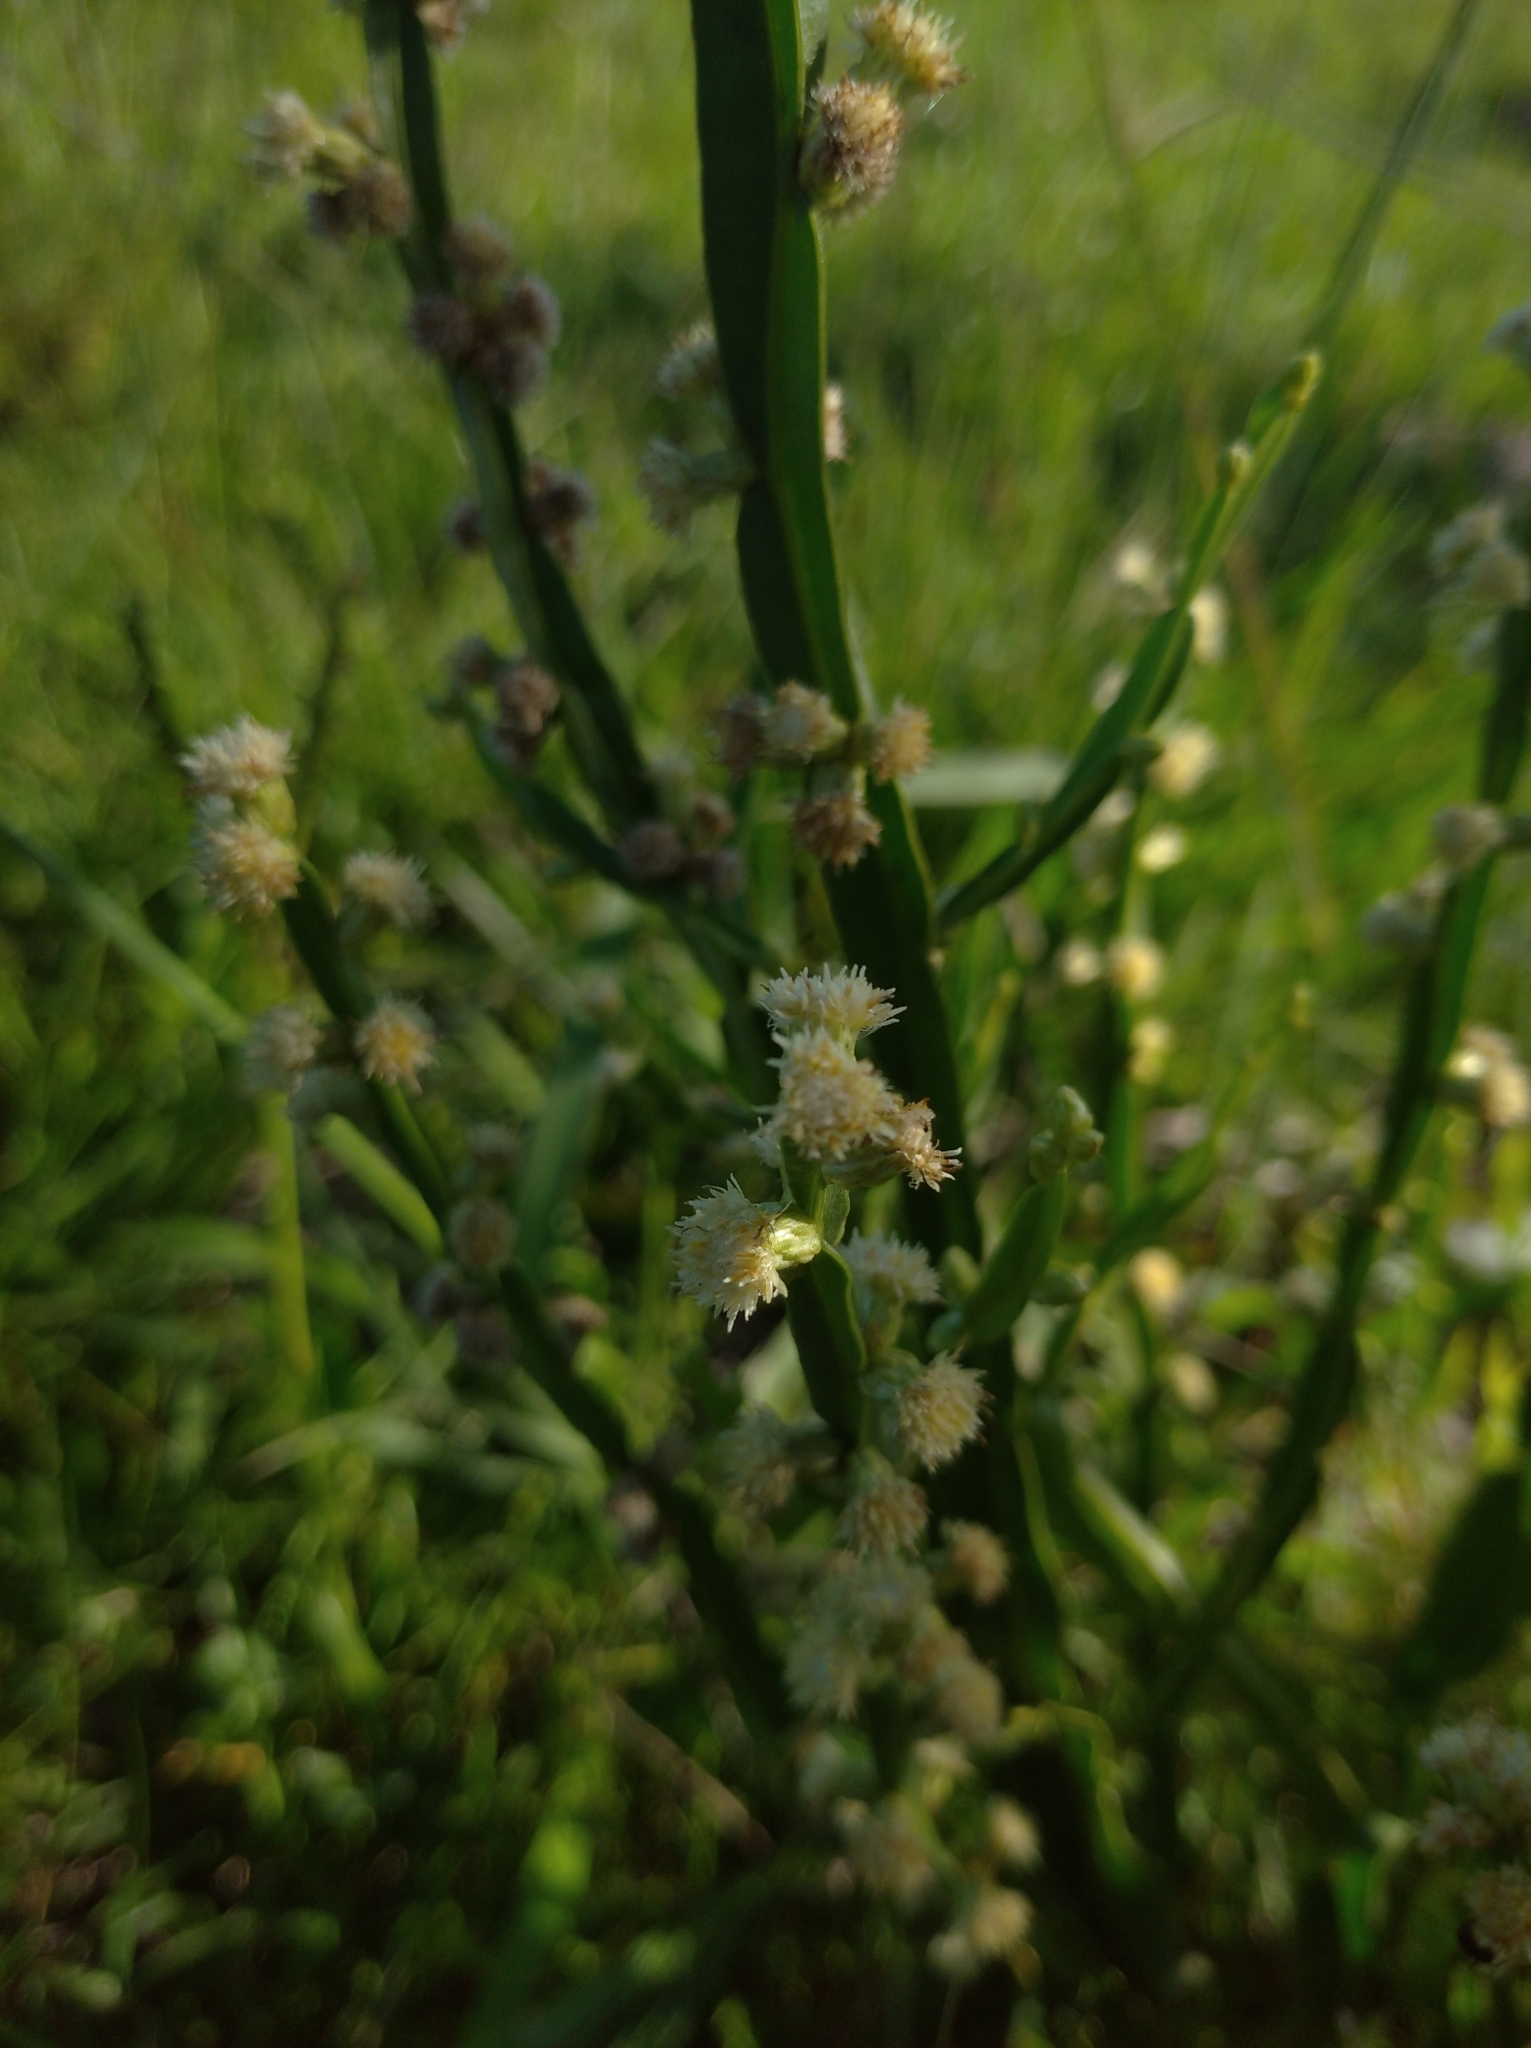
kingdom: Plantae
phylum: Tracheophyta
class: Magnoliopsida
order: Asterales
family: Asteraceae
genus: Baccharis
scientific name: Baccharis trimera
